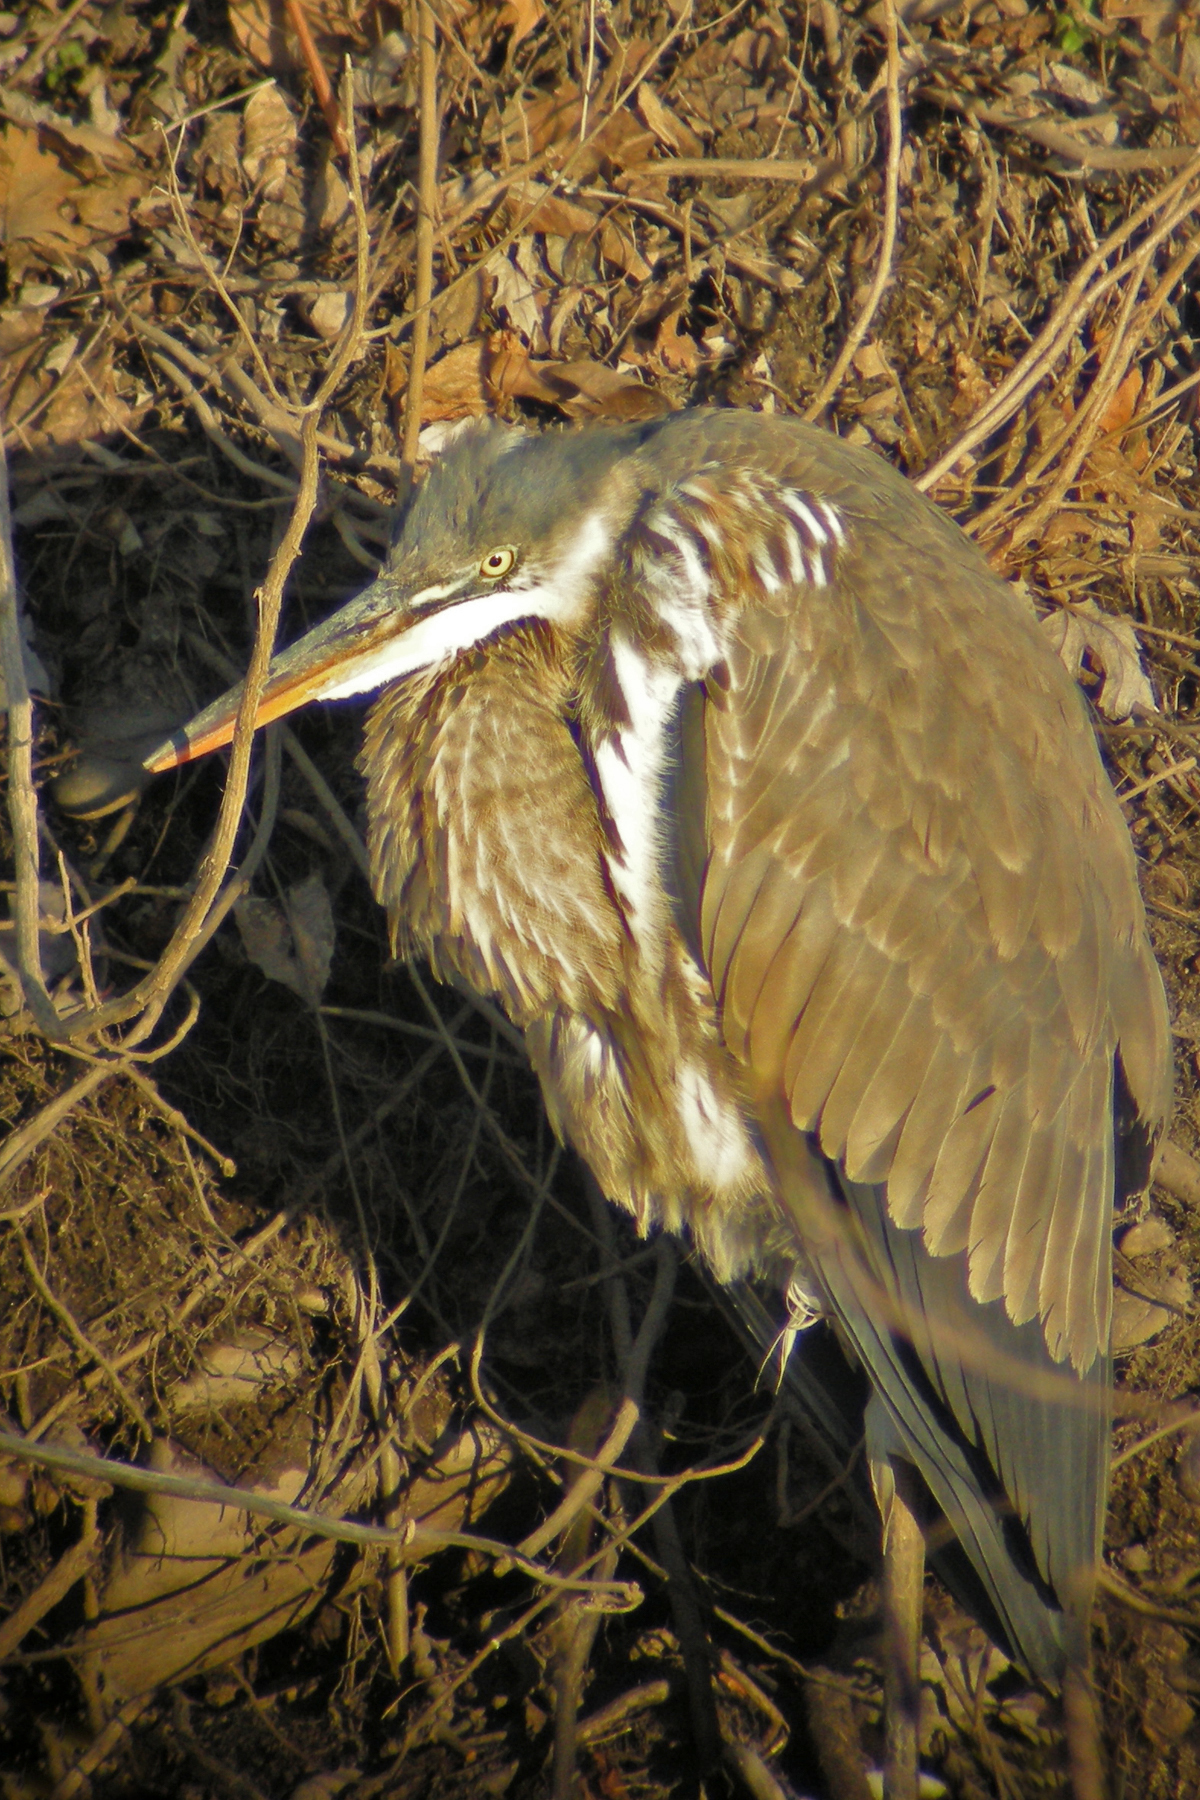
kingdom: Animalia
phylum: Chordata
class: Aves
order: Pelecaniformes
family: Ardeidae
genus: Ardea
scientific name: Ardea herodias
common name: Great blue heron
